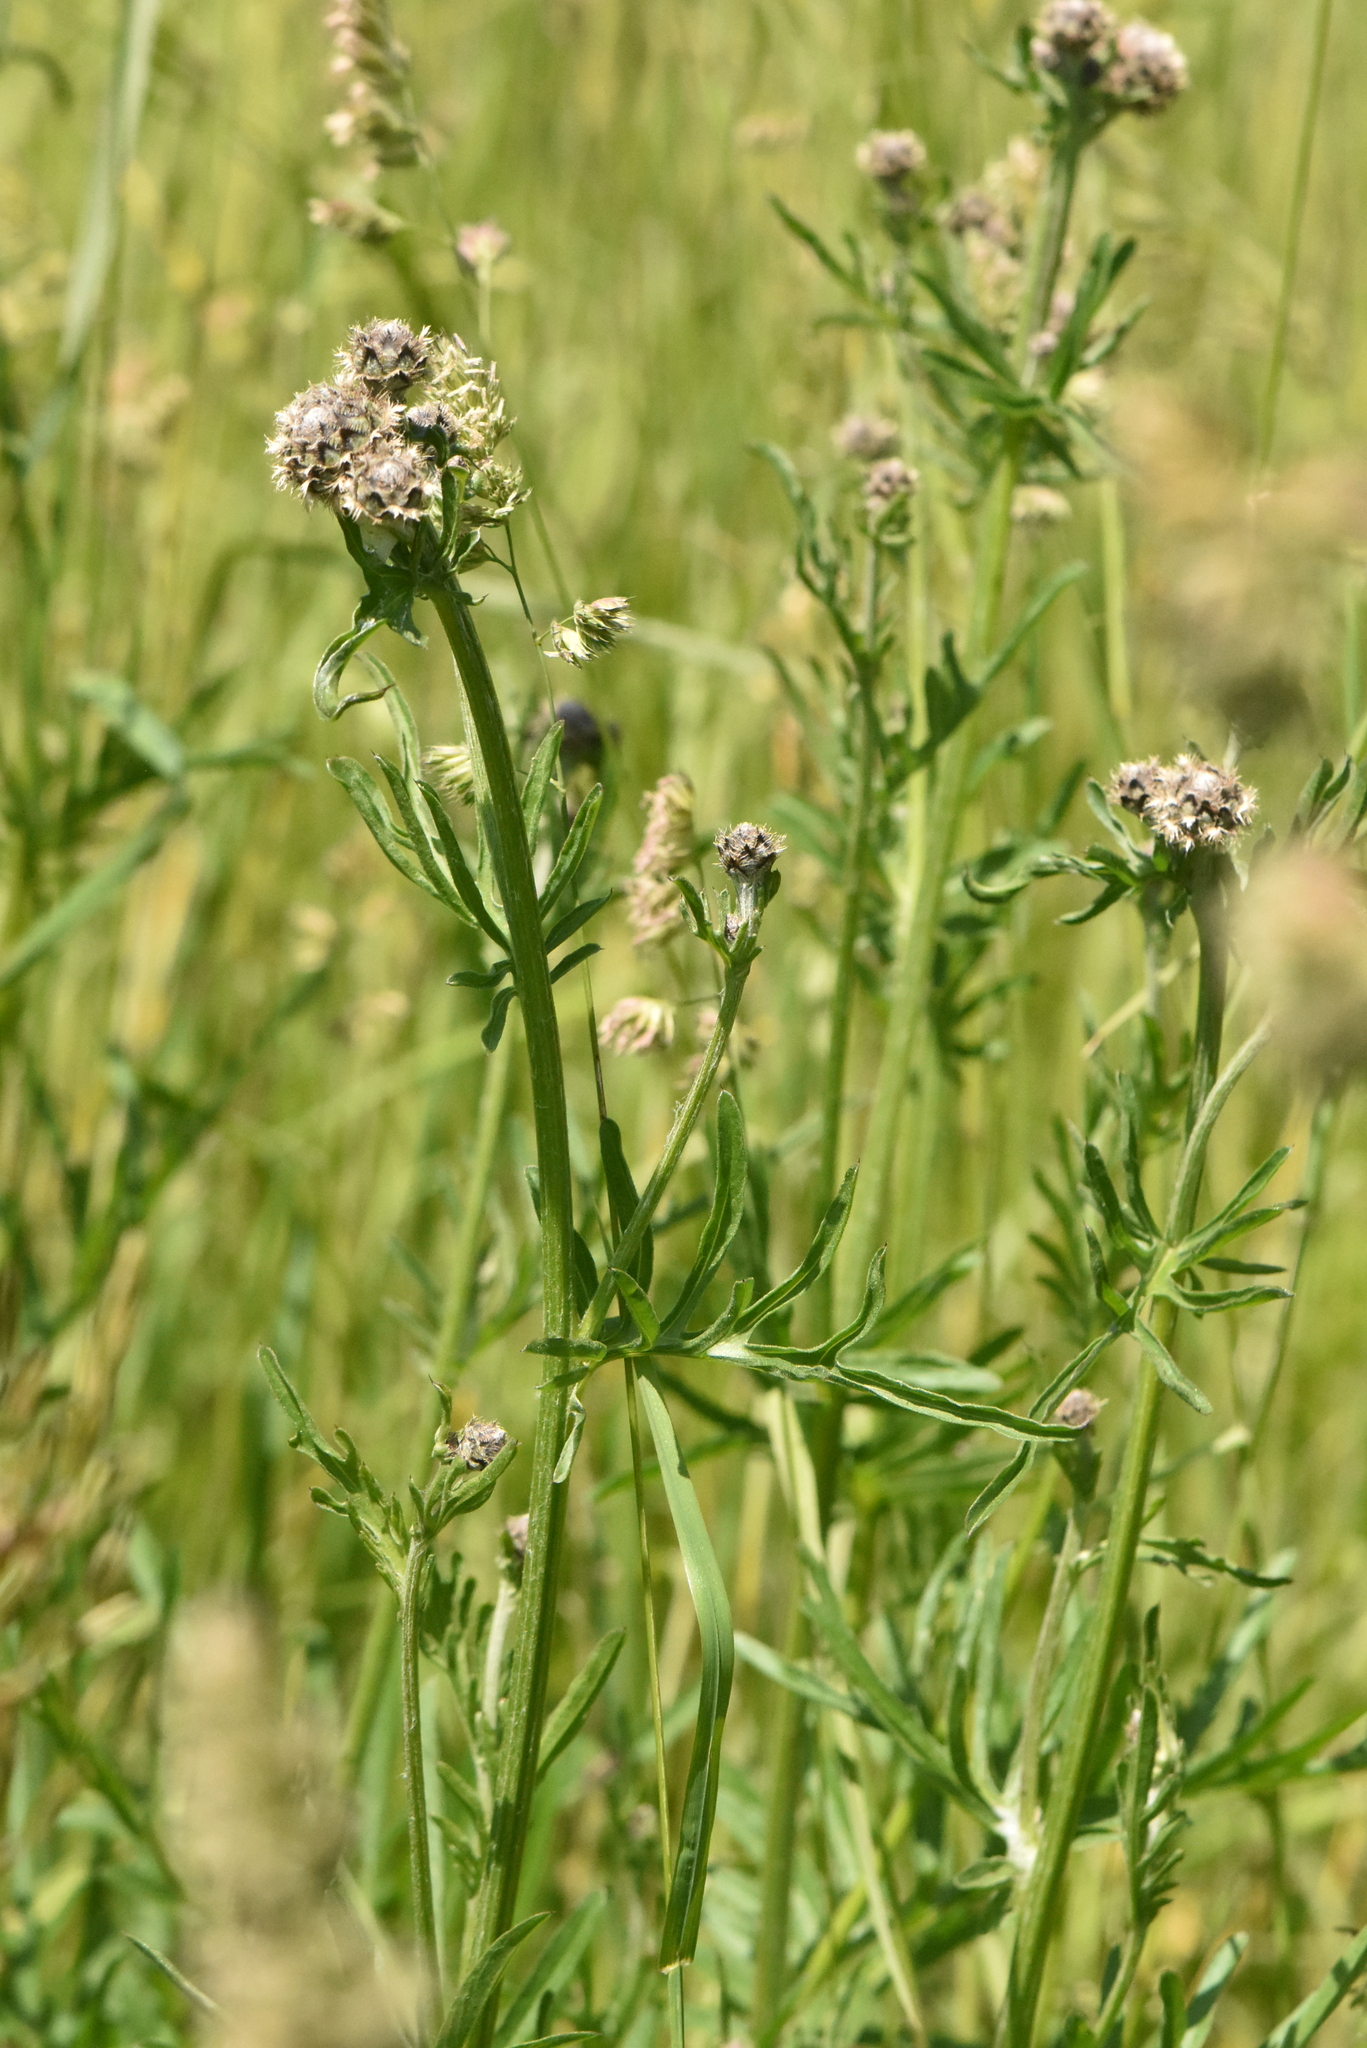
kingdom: Plantae
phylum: Tracheophyta
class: Magnoliopsida
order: Asterales
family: Asteraceae
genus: Centaurea
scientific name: Centaurea scabiosa
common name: Greater knapweed
